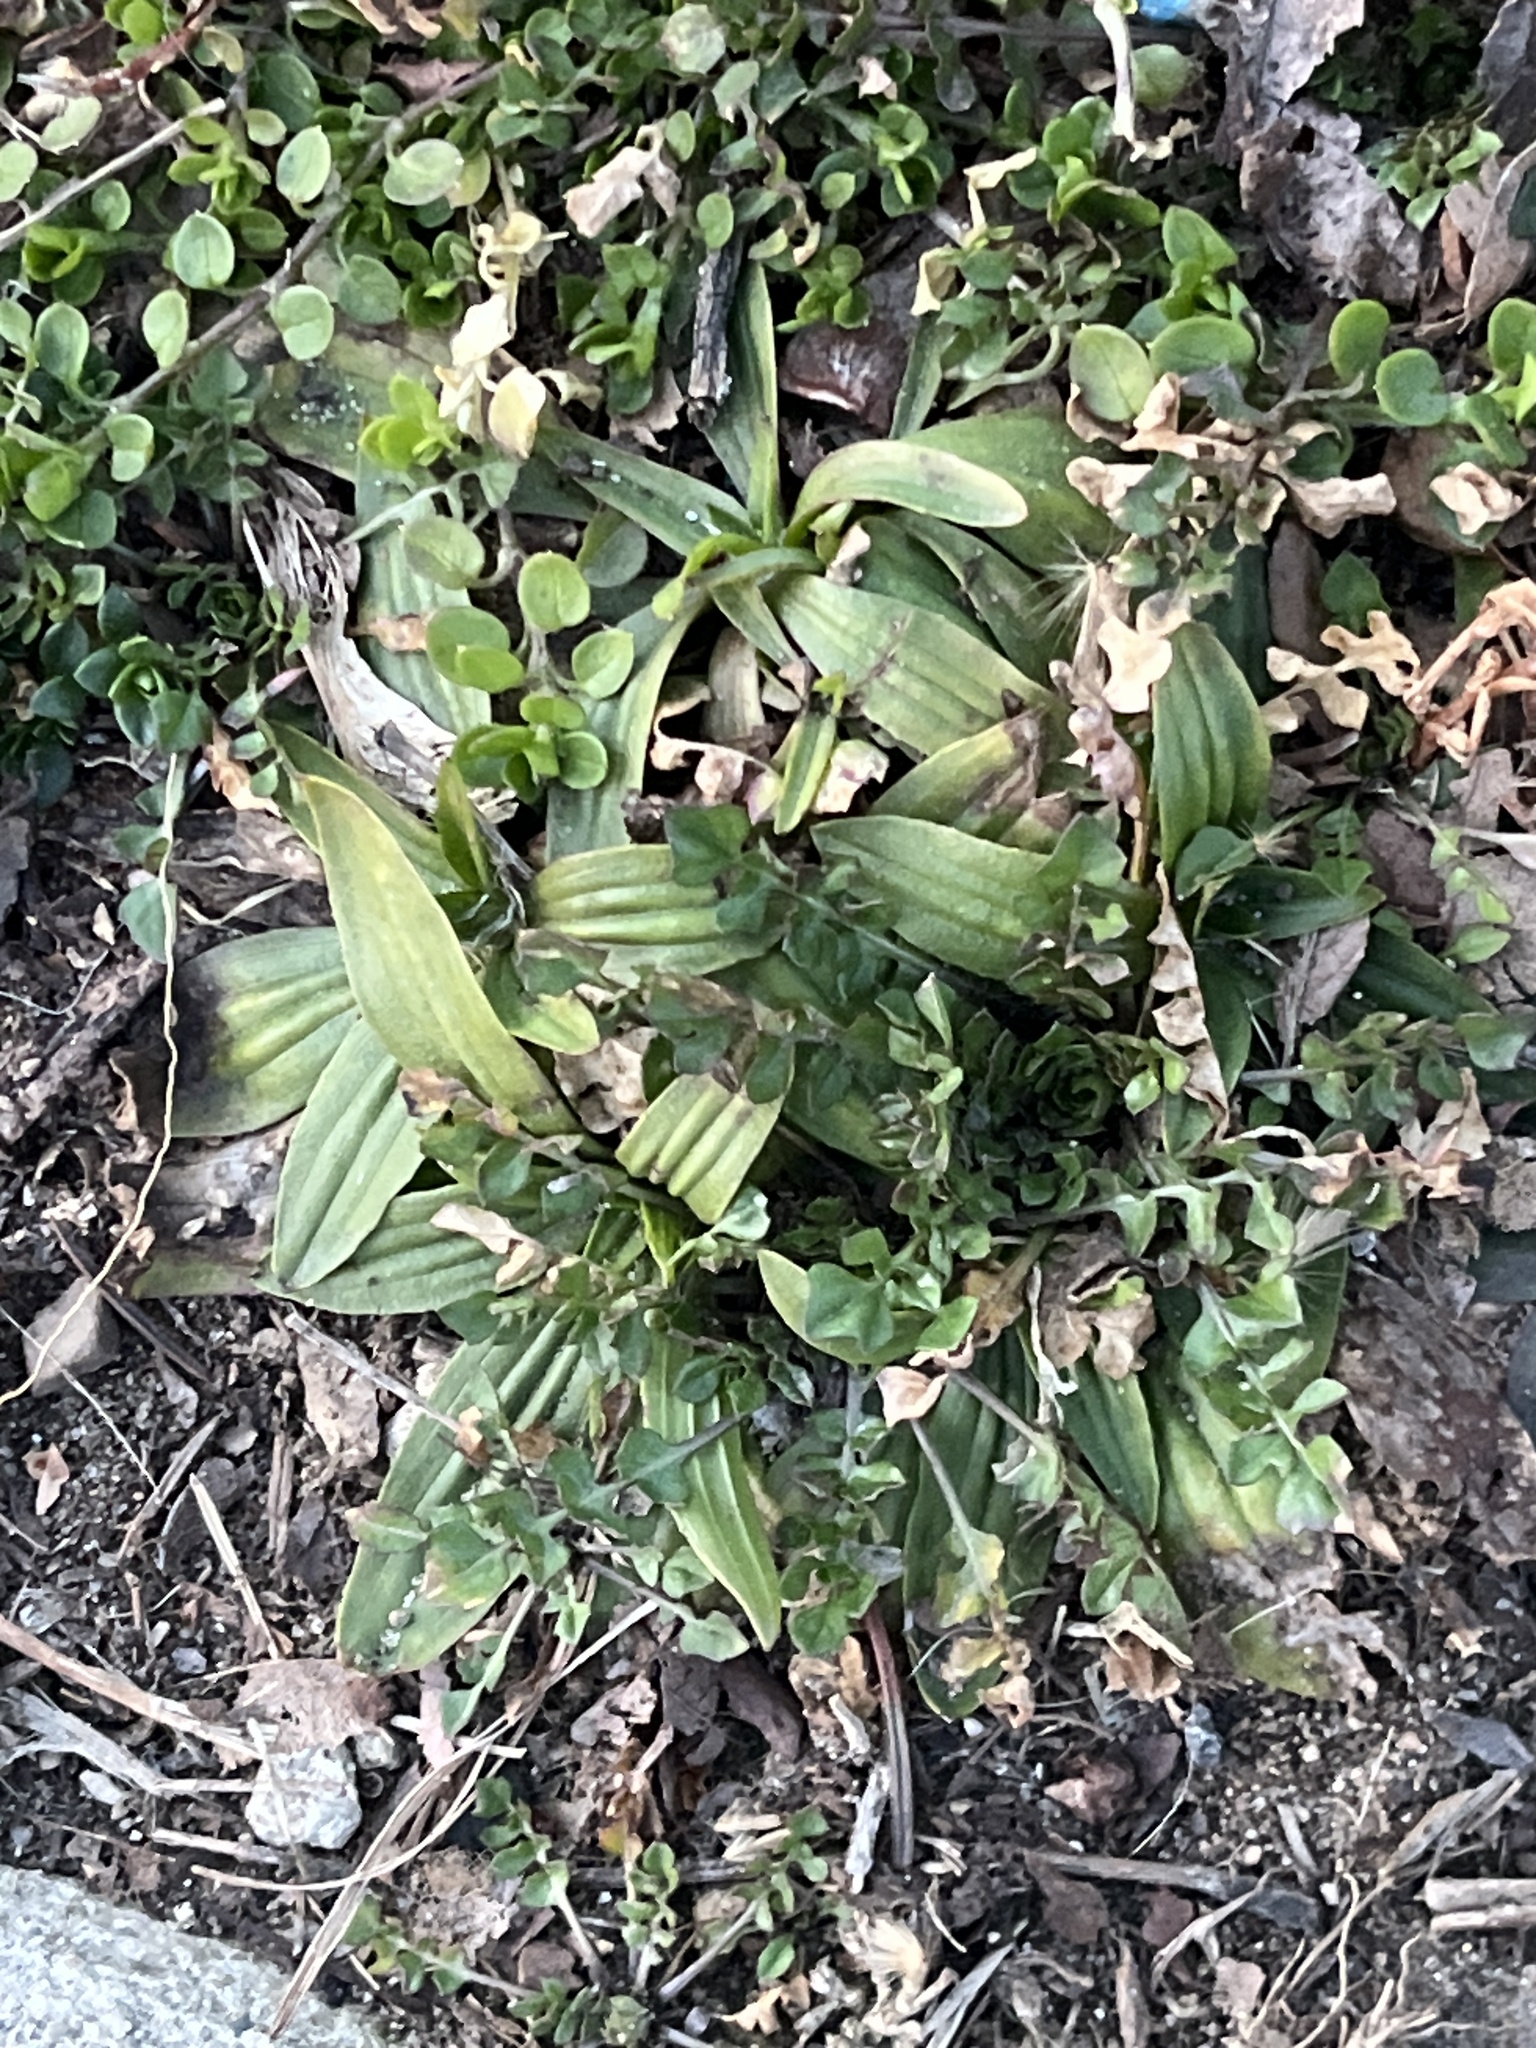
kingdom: Plantae
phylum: Tracheophyta
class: Magnoliopsida
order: Lamiales
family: Plantaginaceae
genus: Plantago
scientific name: Plantago lanceolata
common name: Ribwort plantain
